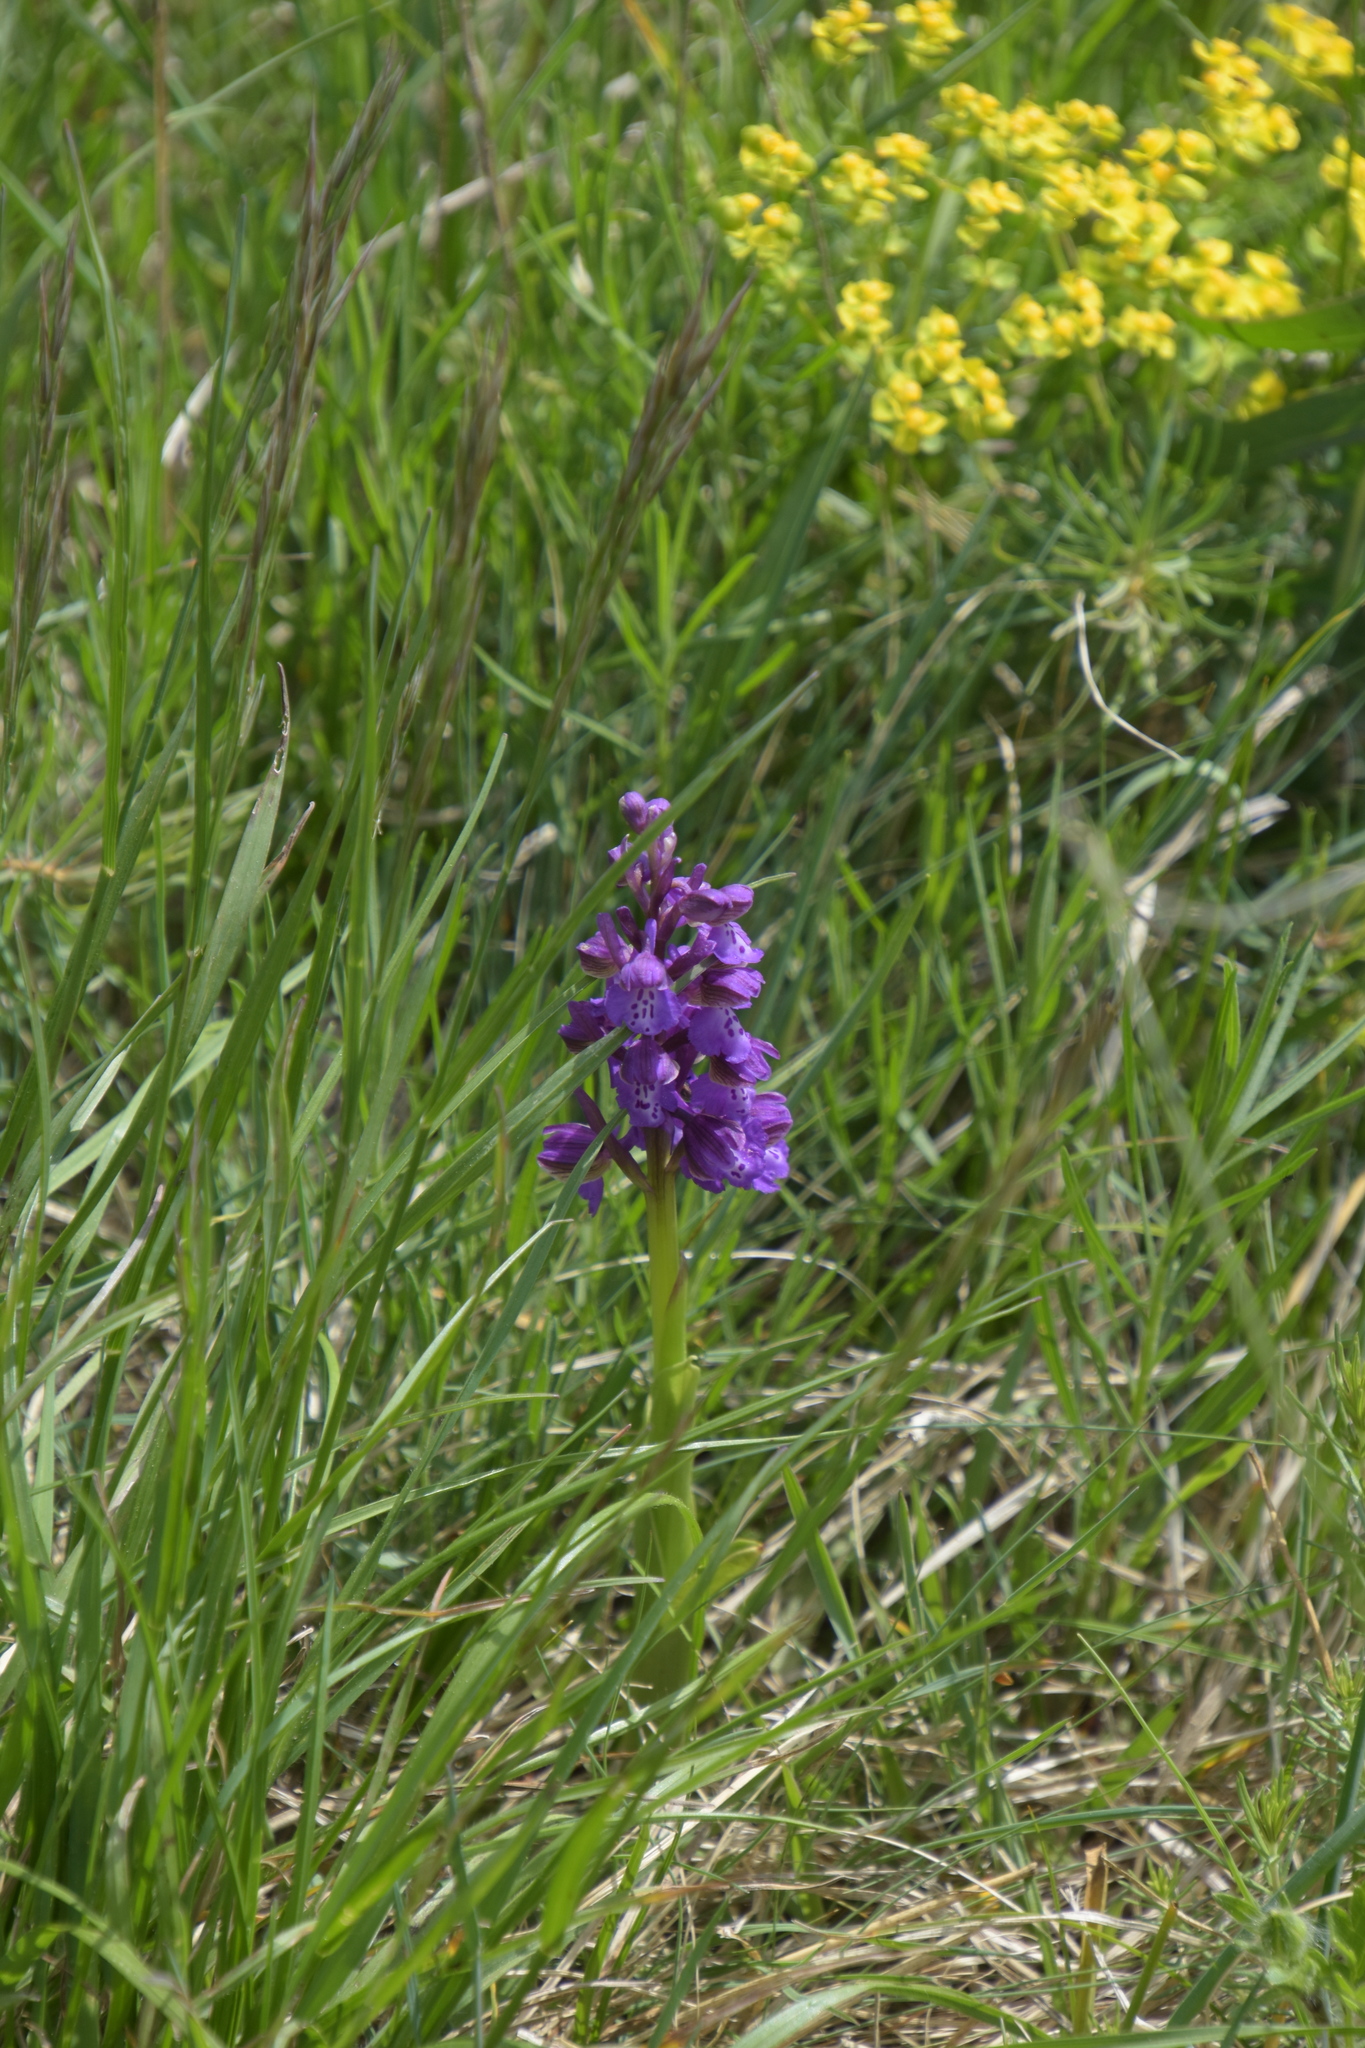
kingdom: Plantae
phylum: Tracheophyta
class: Liliopsida
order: Asparagales
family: Orchidaceae
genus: Anacamptis
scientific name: Anacamptis morio
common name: Green-winged orchid
